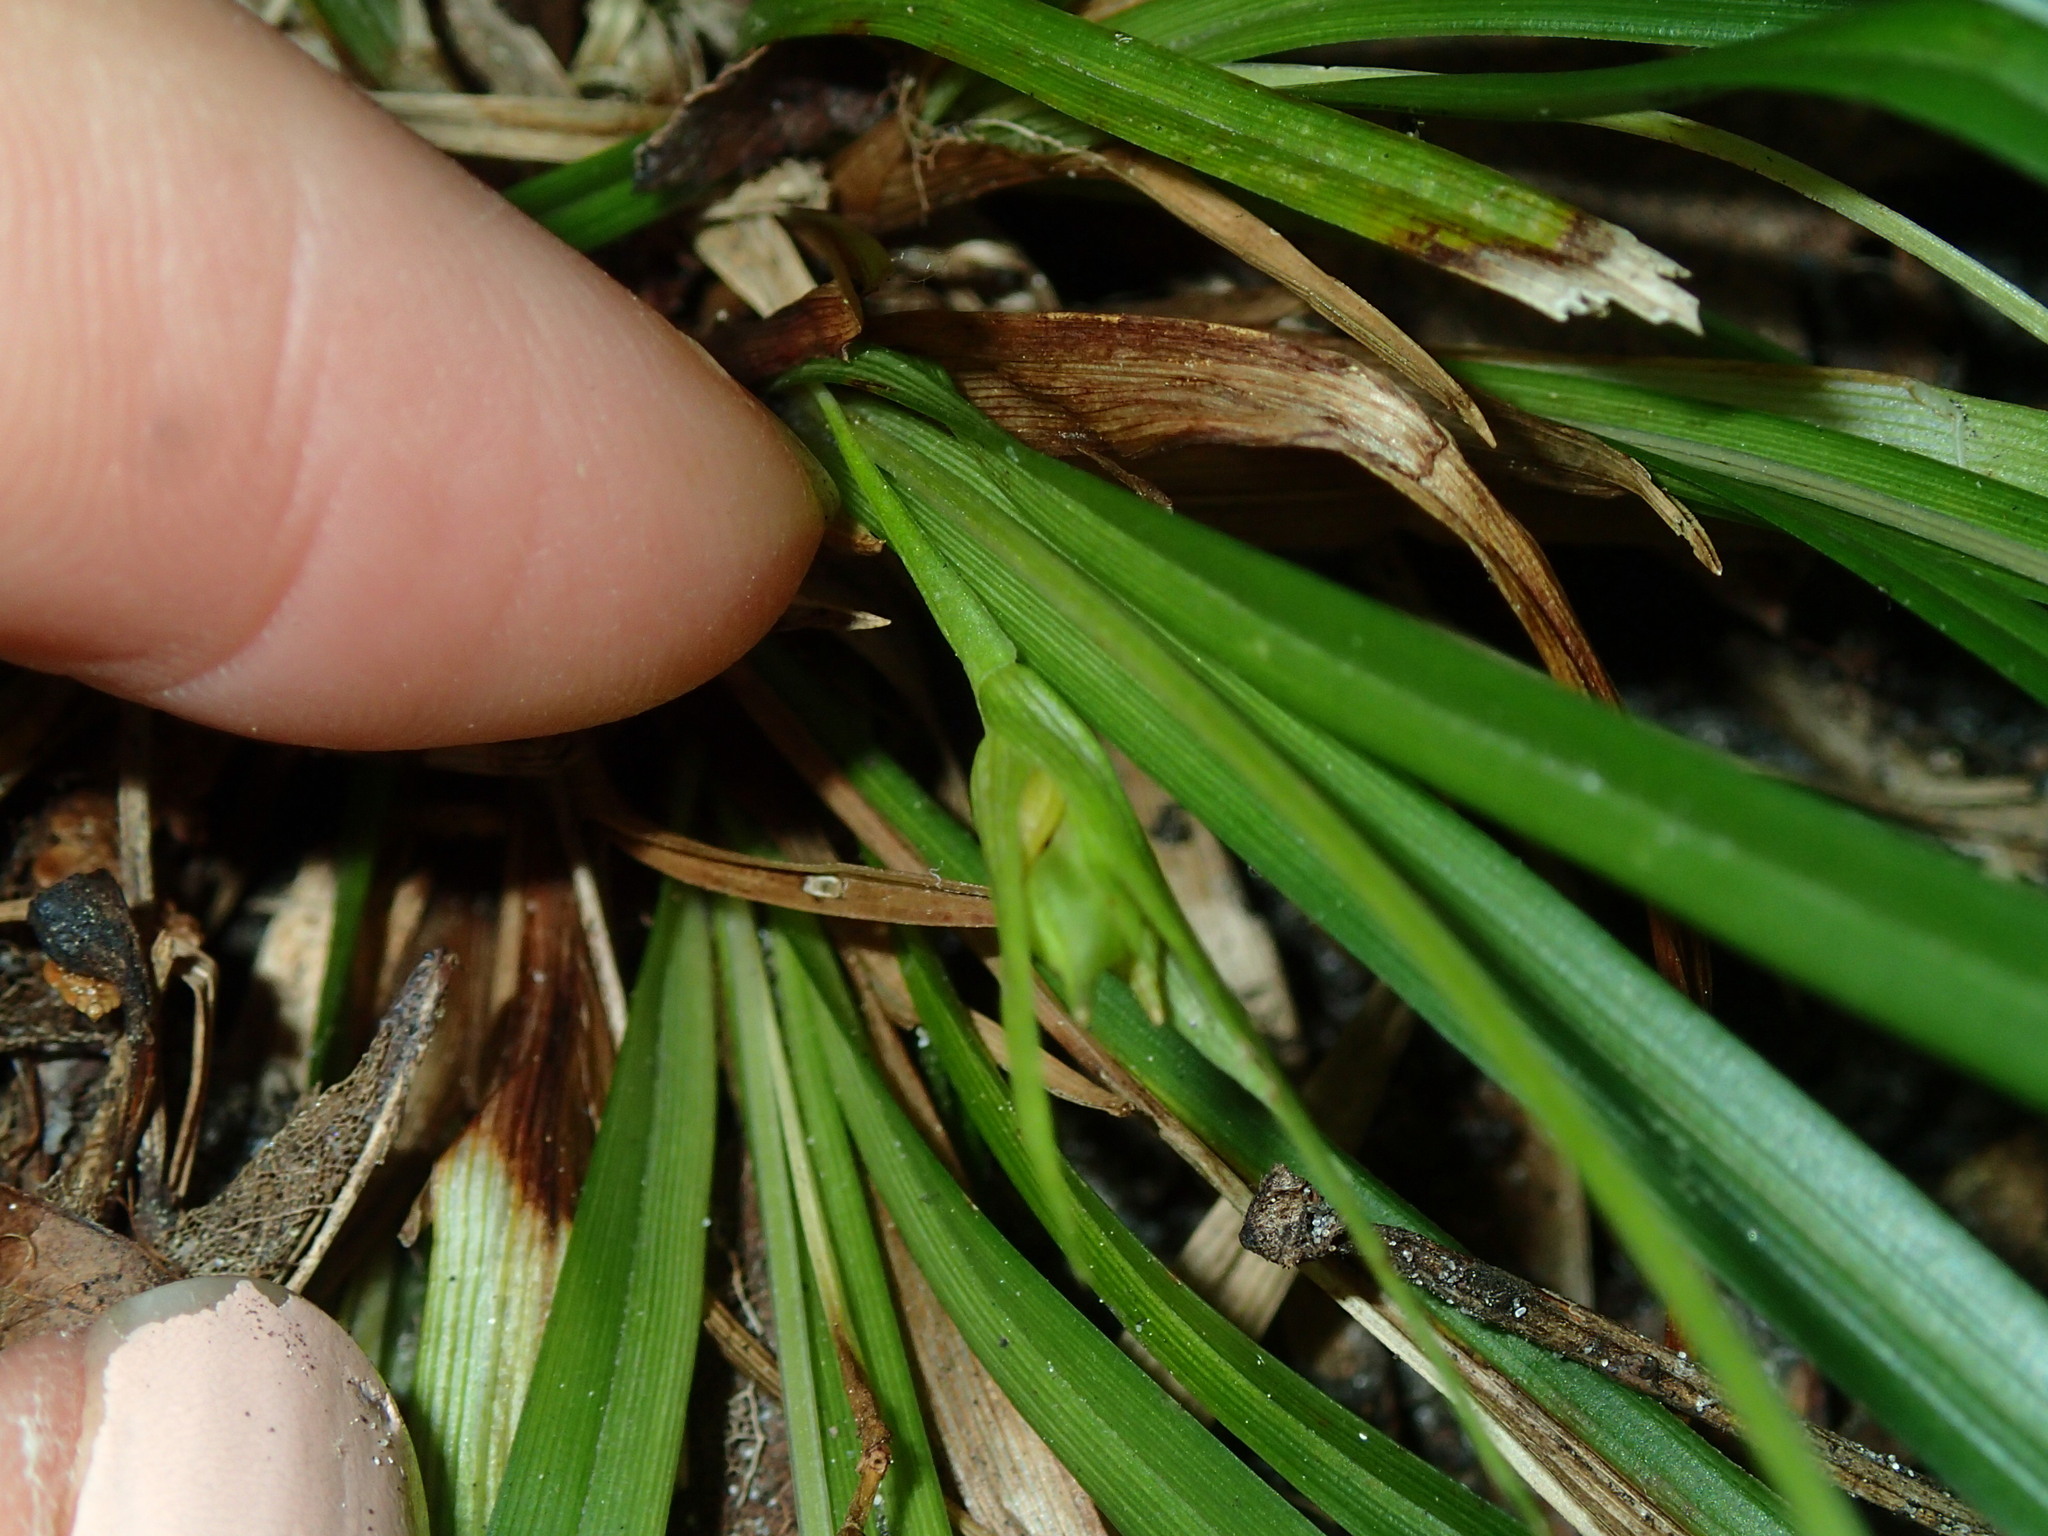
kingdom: Plantae
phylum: Tracheophyta
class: Liliopsida
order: Poales
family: Cyperaceae
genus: Carex
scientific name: Carex backii
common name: Back's sedge
